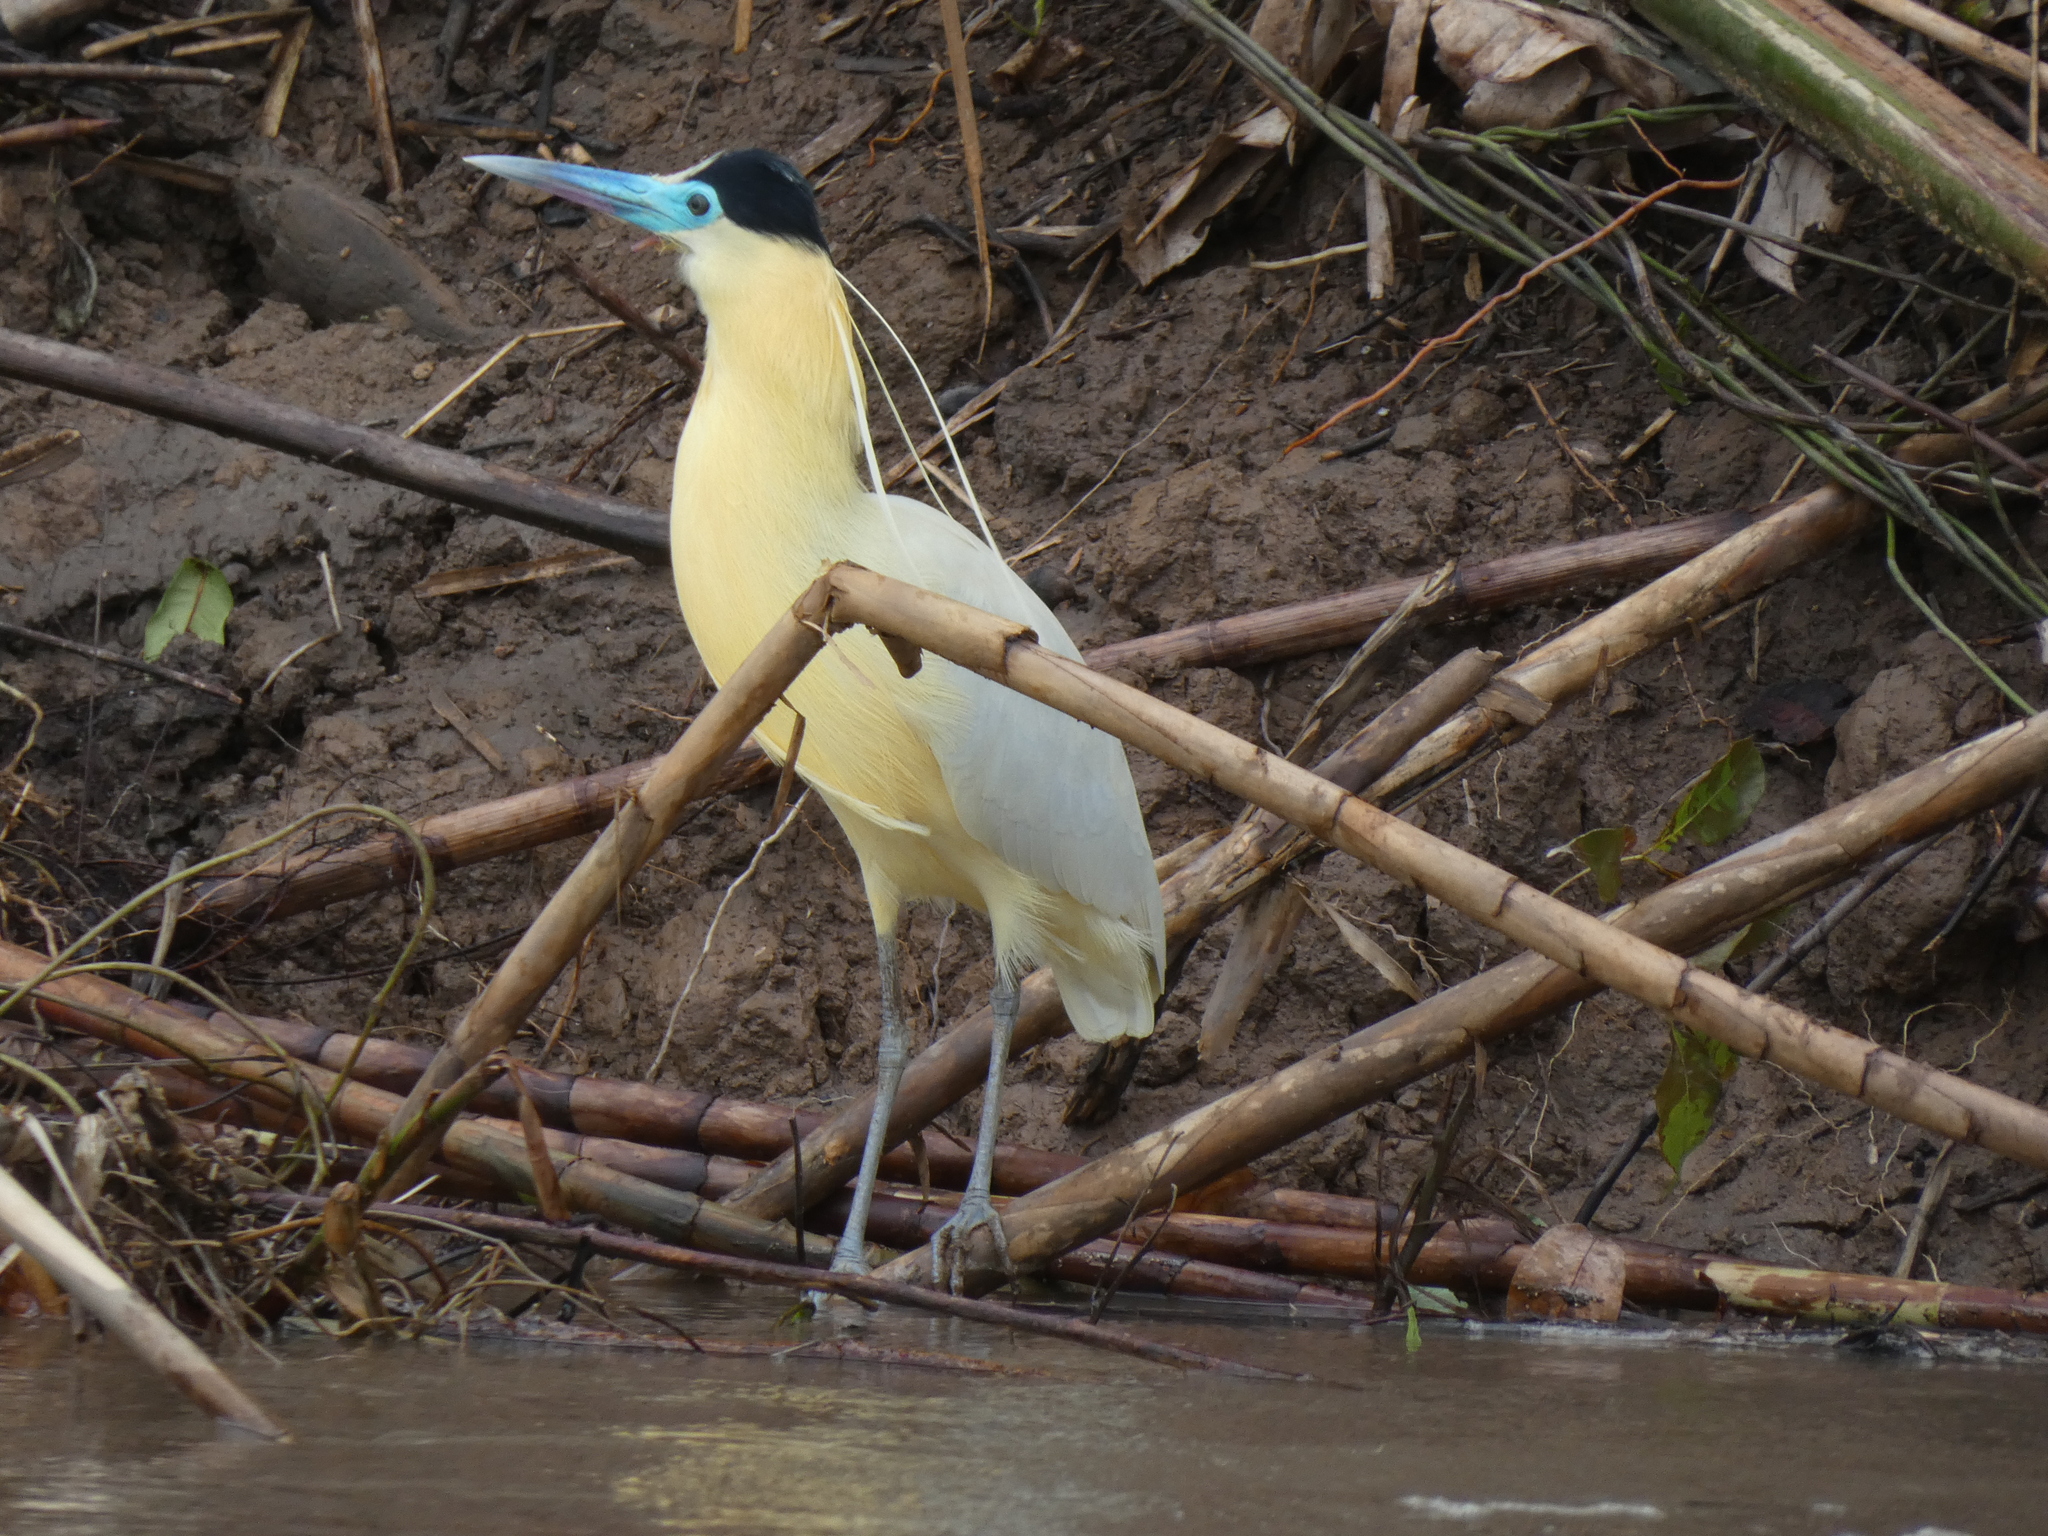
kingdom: Animalia
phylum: Chordata
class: Aves
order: Pelecaniformes
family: Ardeidae
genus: Pilherodius
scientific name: Pilherodius pileatus
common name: Capped heron
